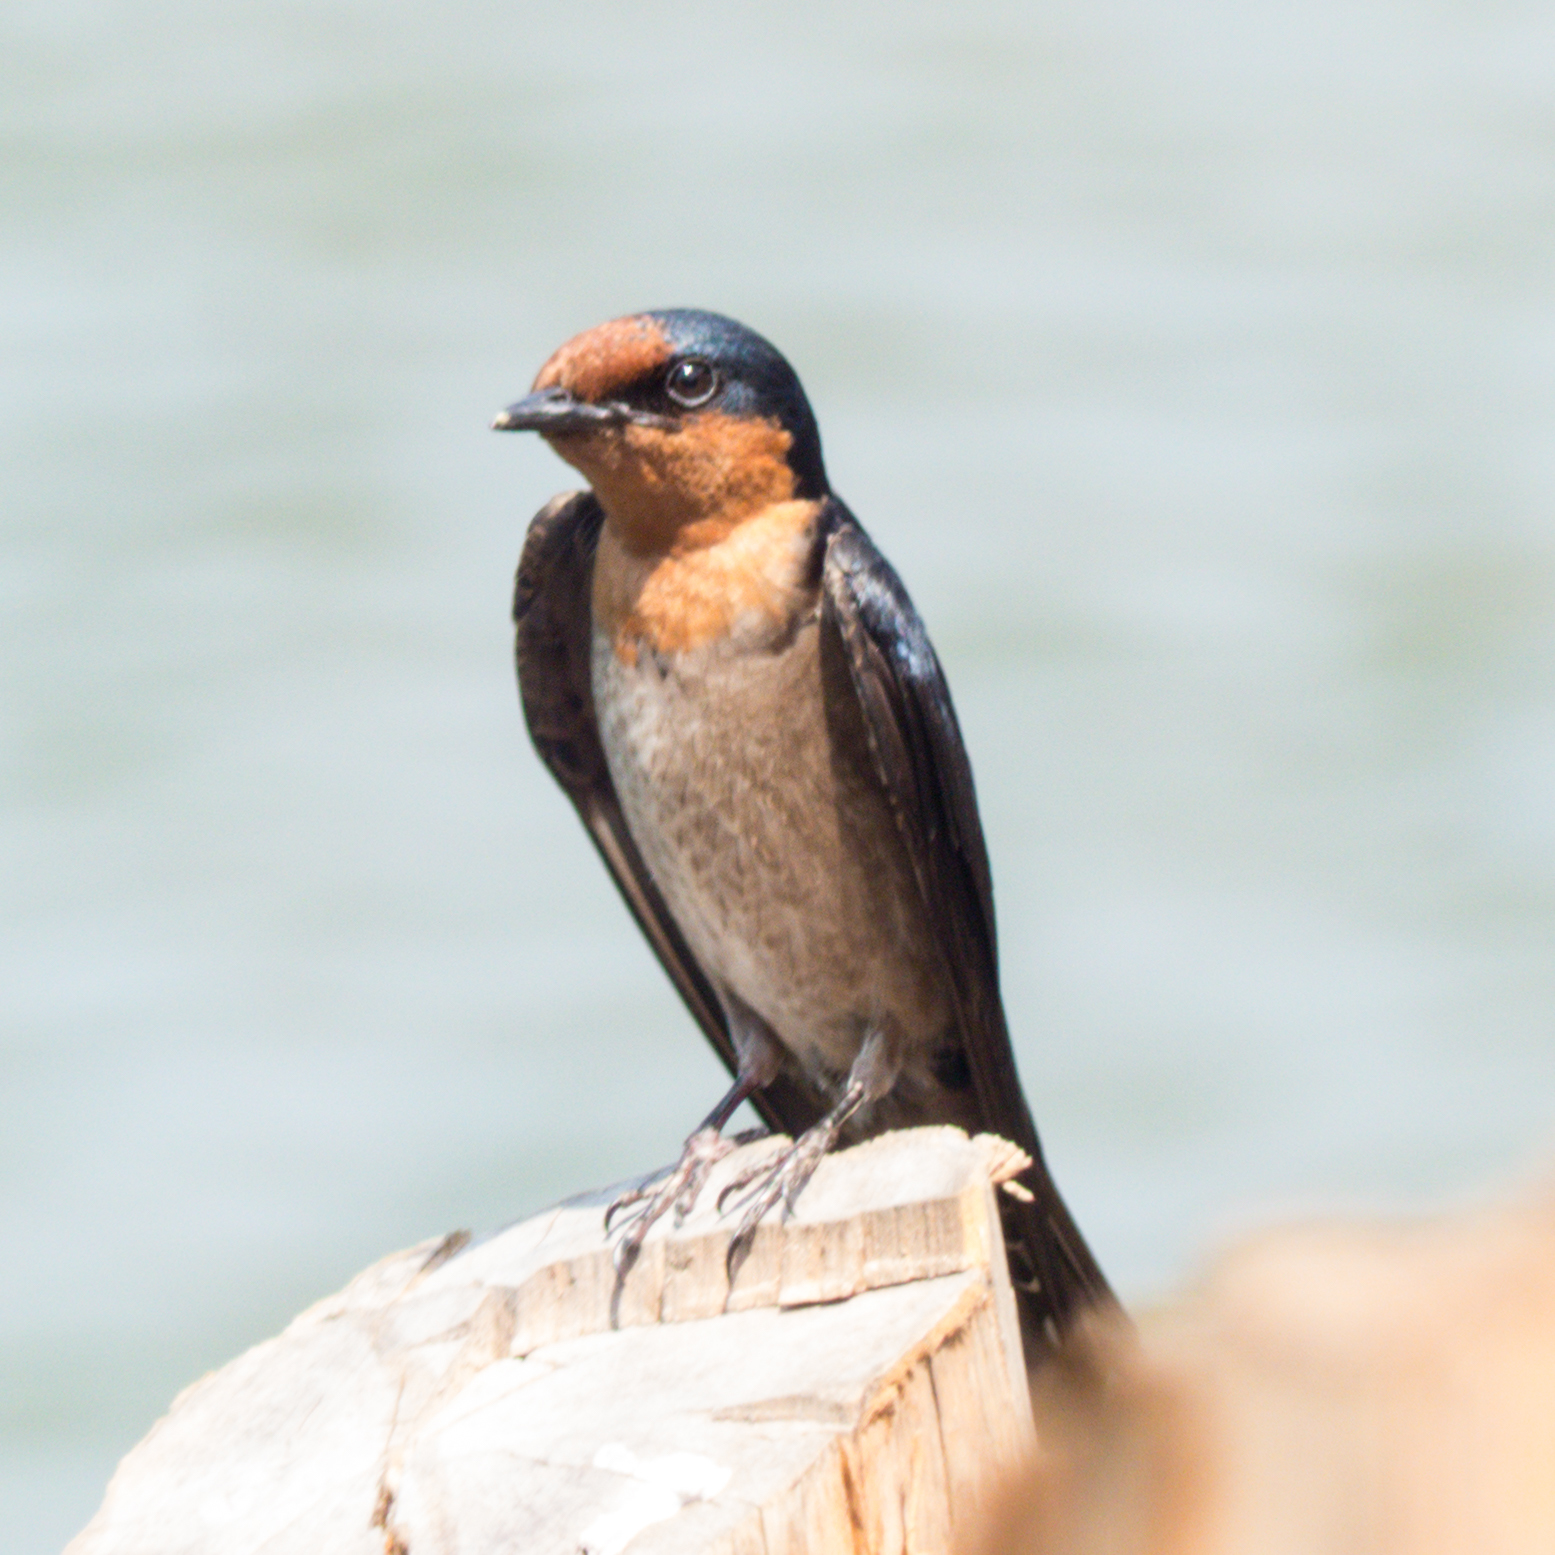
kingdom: Animalia
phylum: Chordata
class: Aves
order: Passeriformes
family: Hirundinidae
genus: Hirundo
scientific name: Hirundo tahitica
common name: Pacific swallow
